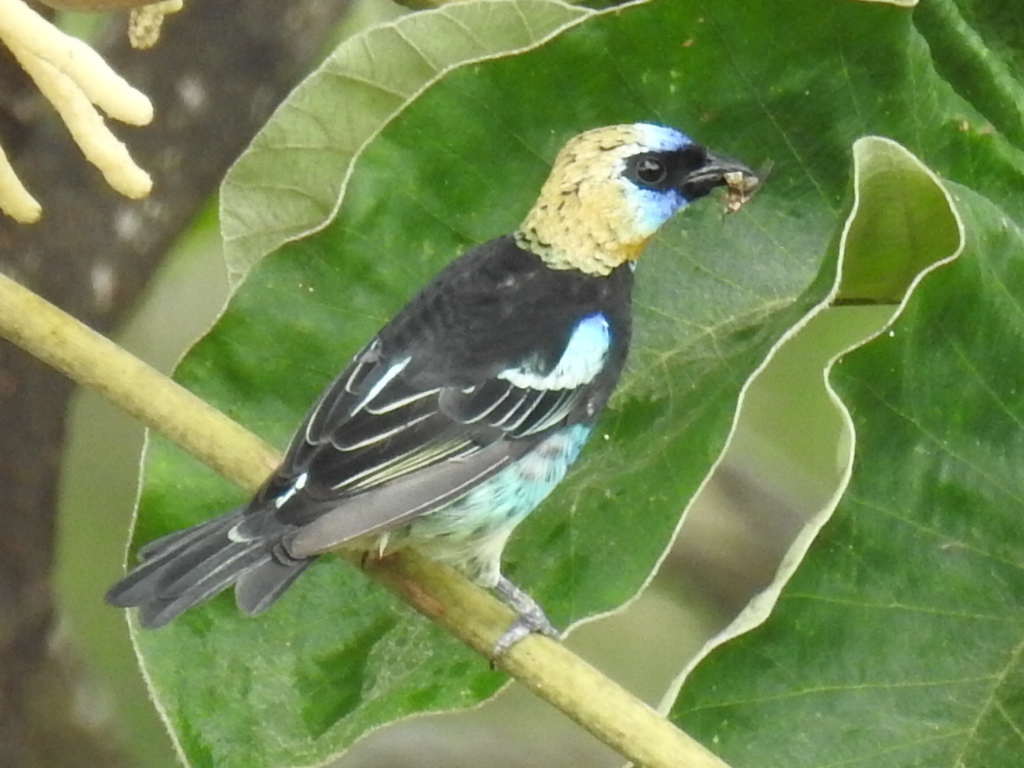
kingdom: Animalia
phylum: Chordata
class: Aves
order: Passeriformes
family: Thraupidae
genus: Stilpnia
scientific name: Stilpnia larvata
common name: Golden-hooded tanager
